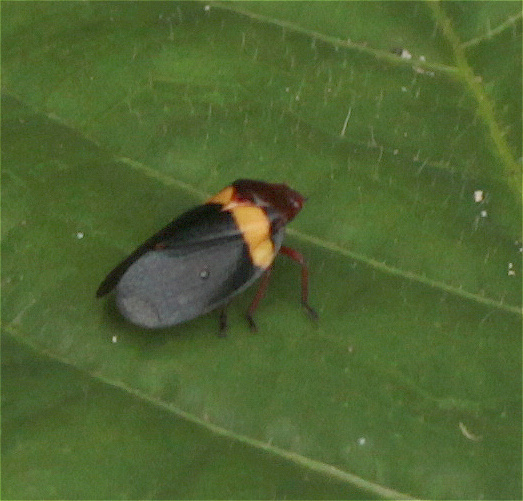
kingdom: Animalia
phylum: Arthropoda
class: Insecta
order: Hemiptera
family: Cercopidae
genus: Sphenorhina
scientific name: Sphenorhina obliterata
